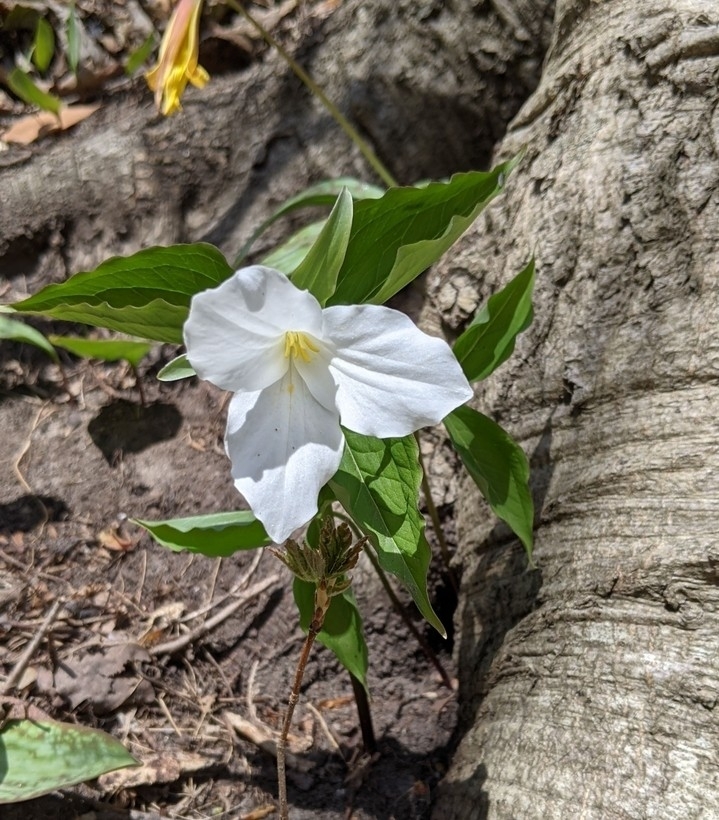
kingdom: Plantae
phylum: Tracheophyta
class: Liliopsida
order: Liliales
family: Melanthiaceae
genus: Trillium
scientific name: Trillium grandiflorum
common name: Great white trillium
